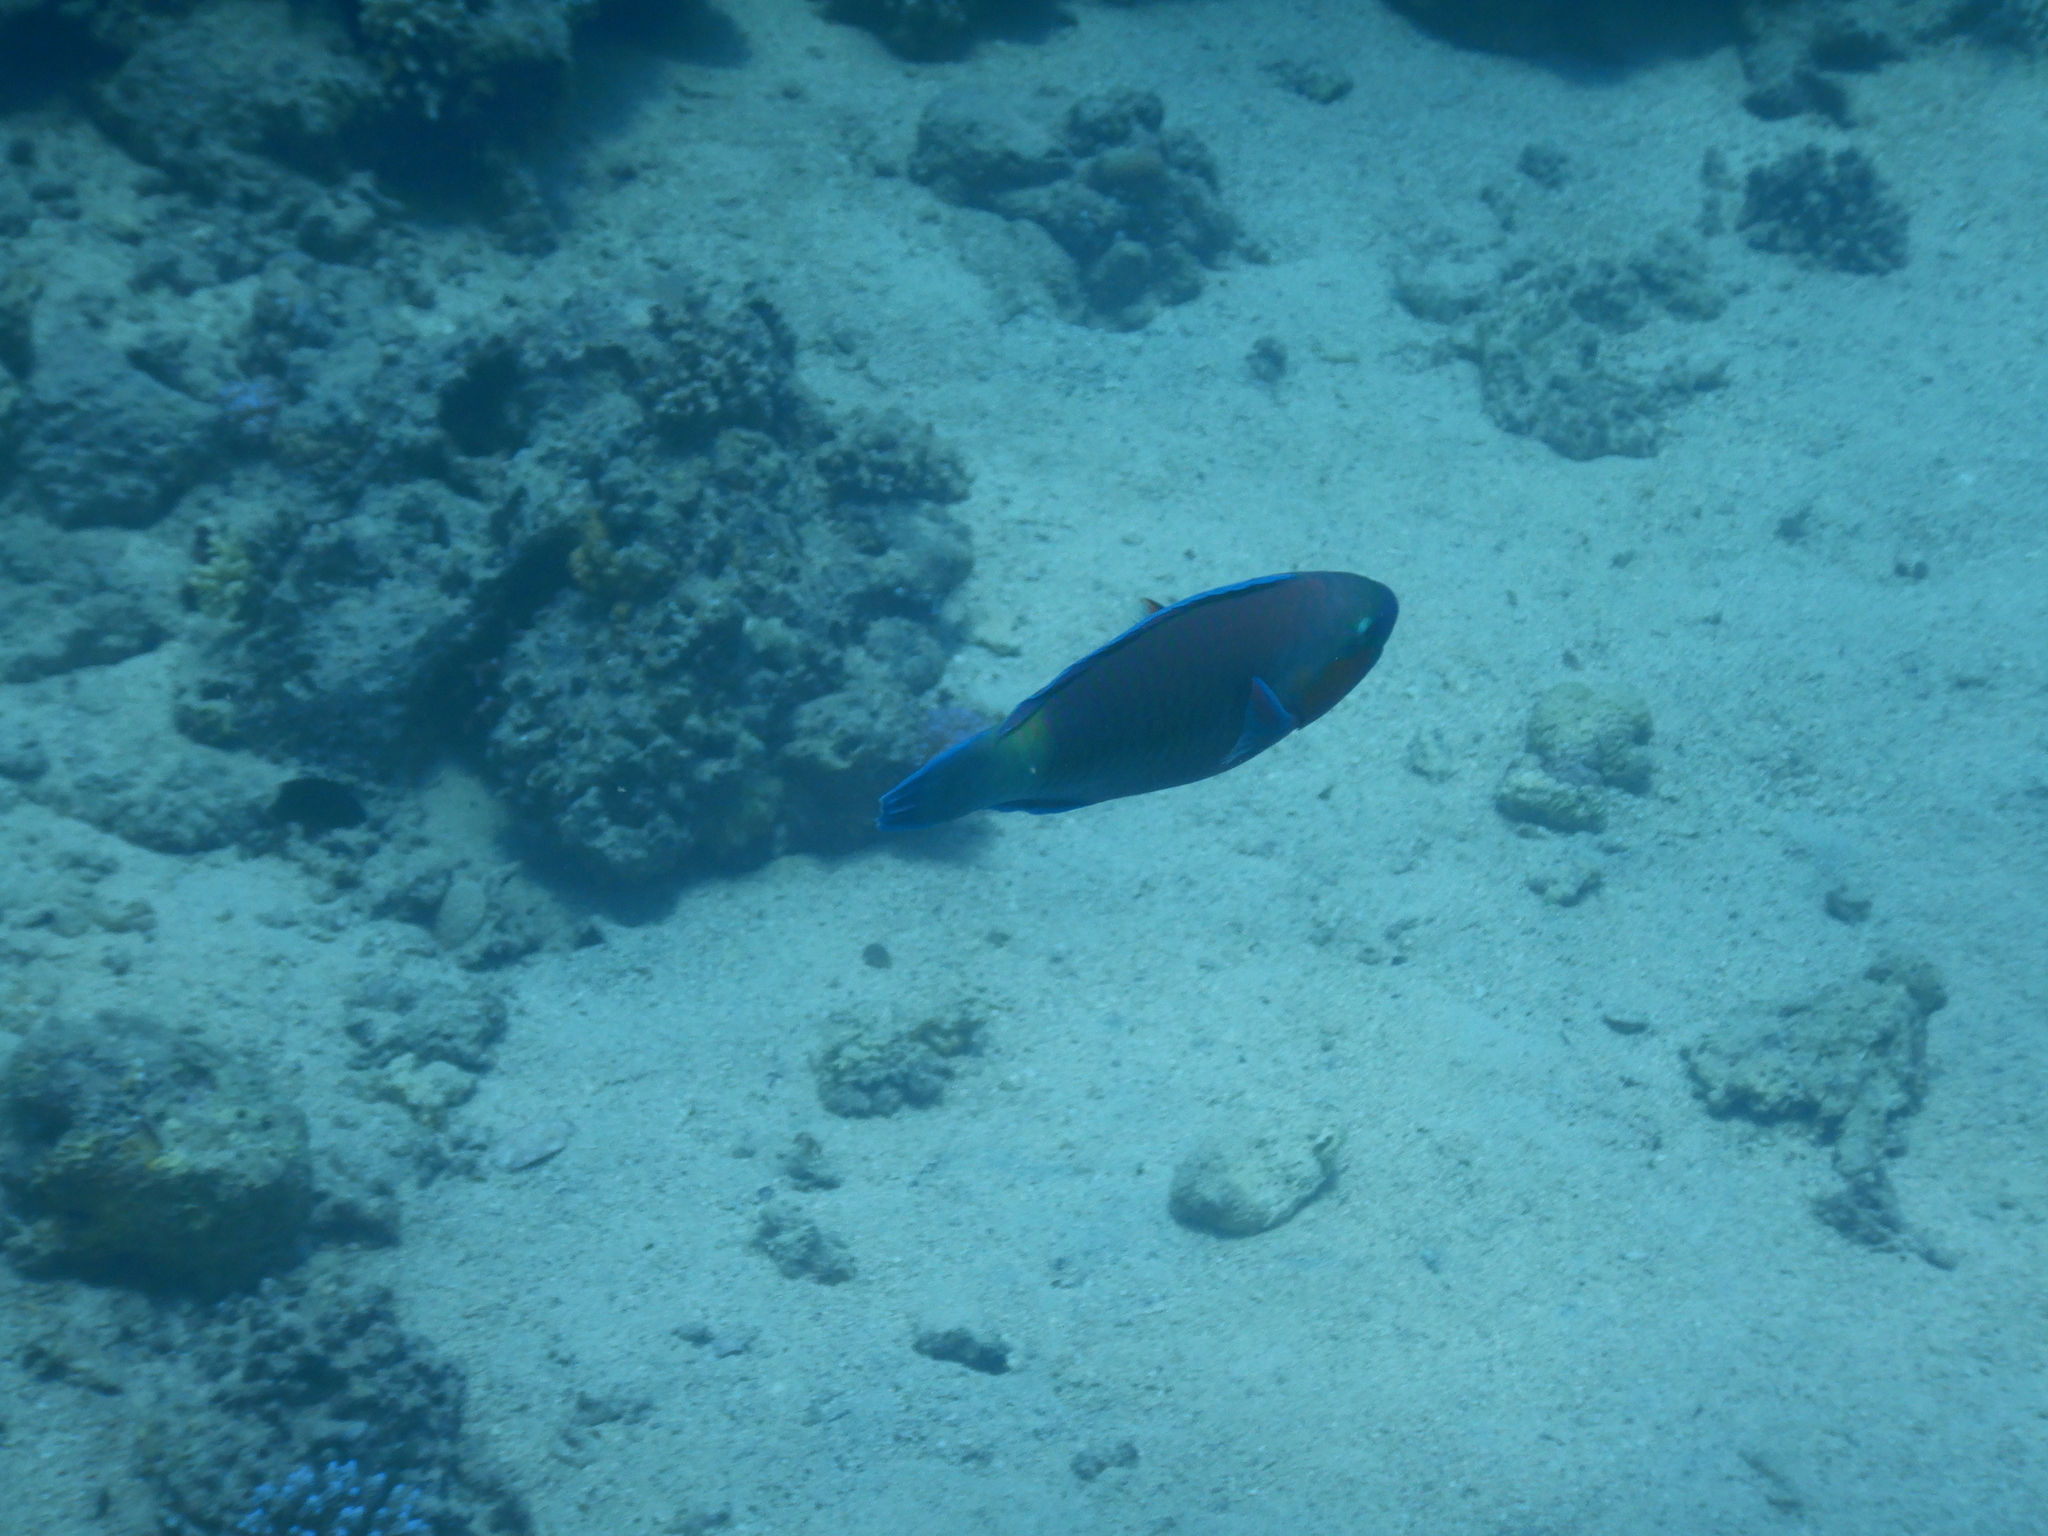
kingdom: Animalia
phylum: Chordata
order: Perciformes
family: Scaridae
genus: Chlorurus
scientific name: Chlorurus sordidus
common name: Bullethead parrotfish
